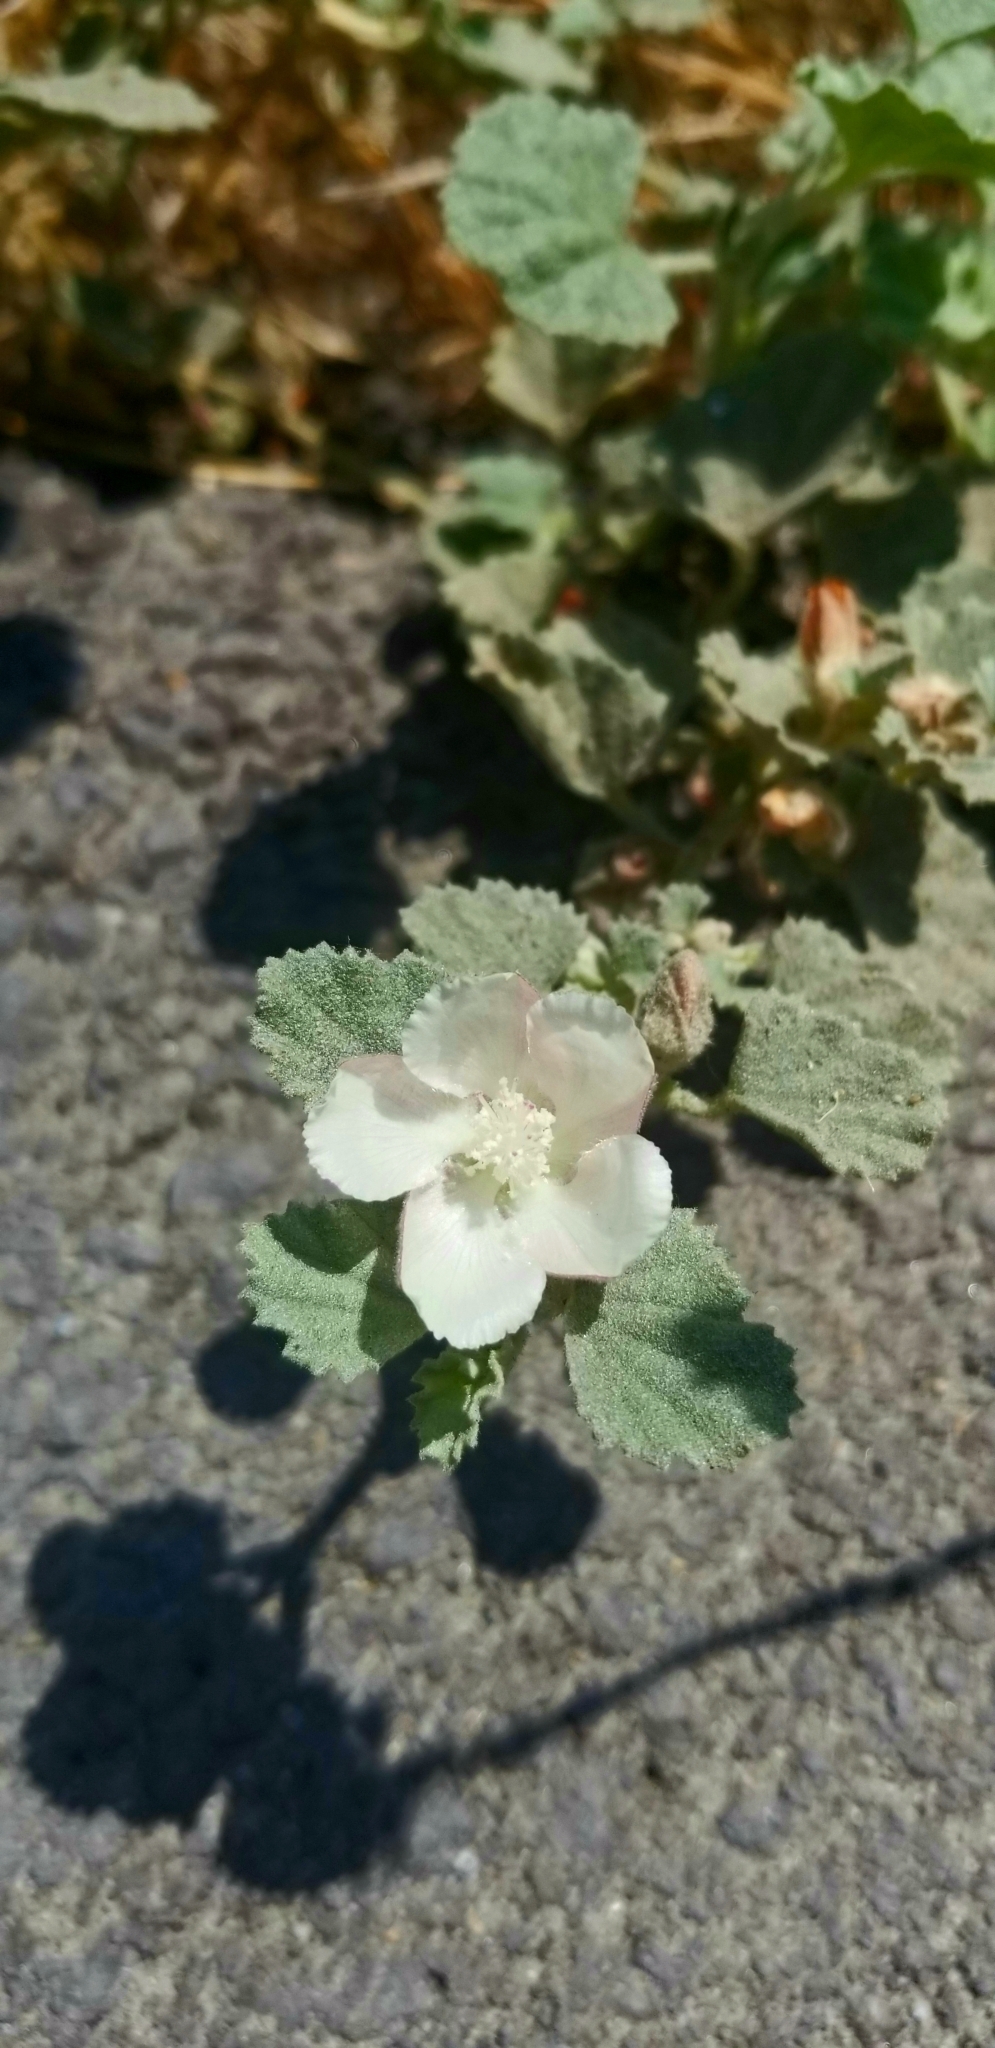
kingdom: Plantae
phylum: Tracheophyta
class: Magnoliopsida
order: Malvales
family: Malvaceae
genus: Malvella
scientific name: Malvella leprosa
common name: Alkali-mallow
